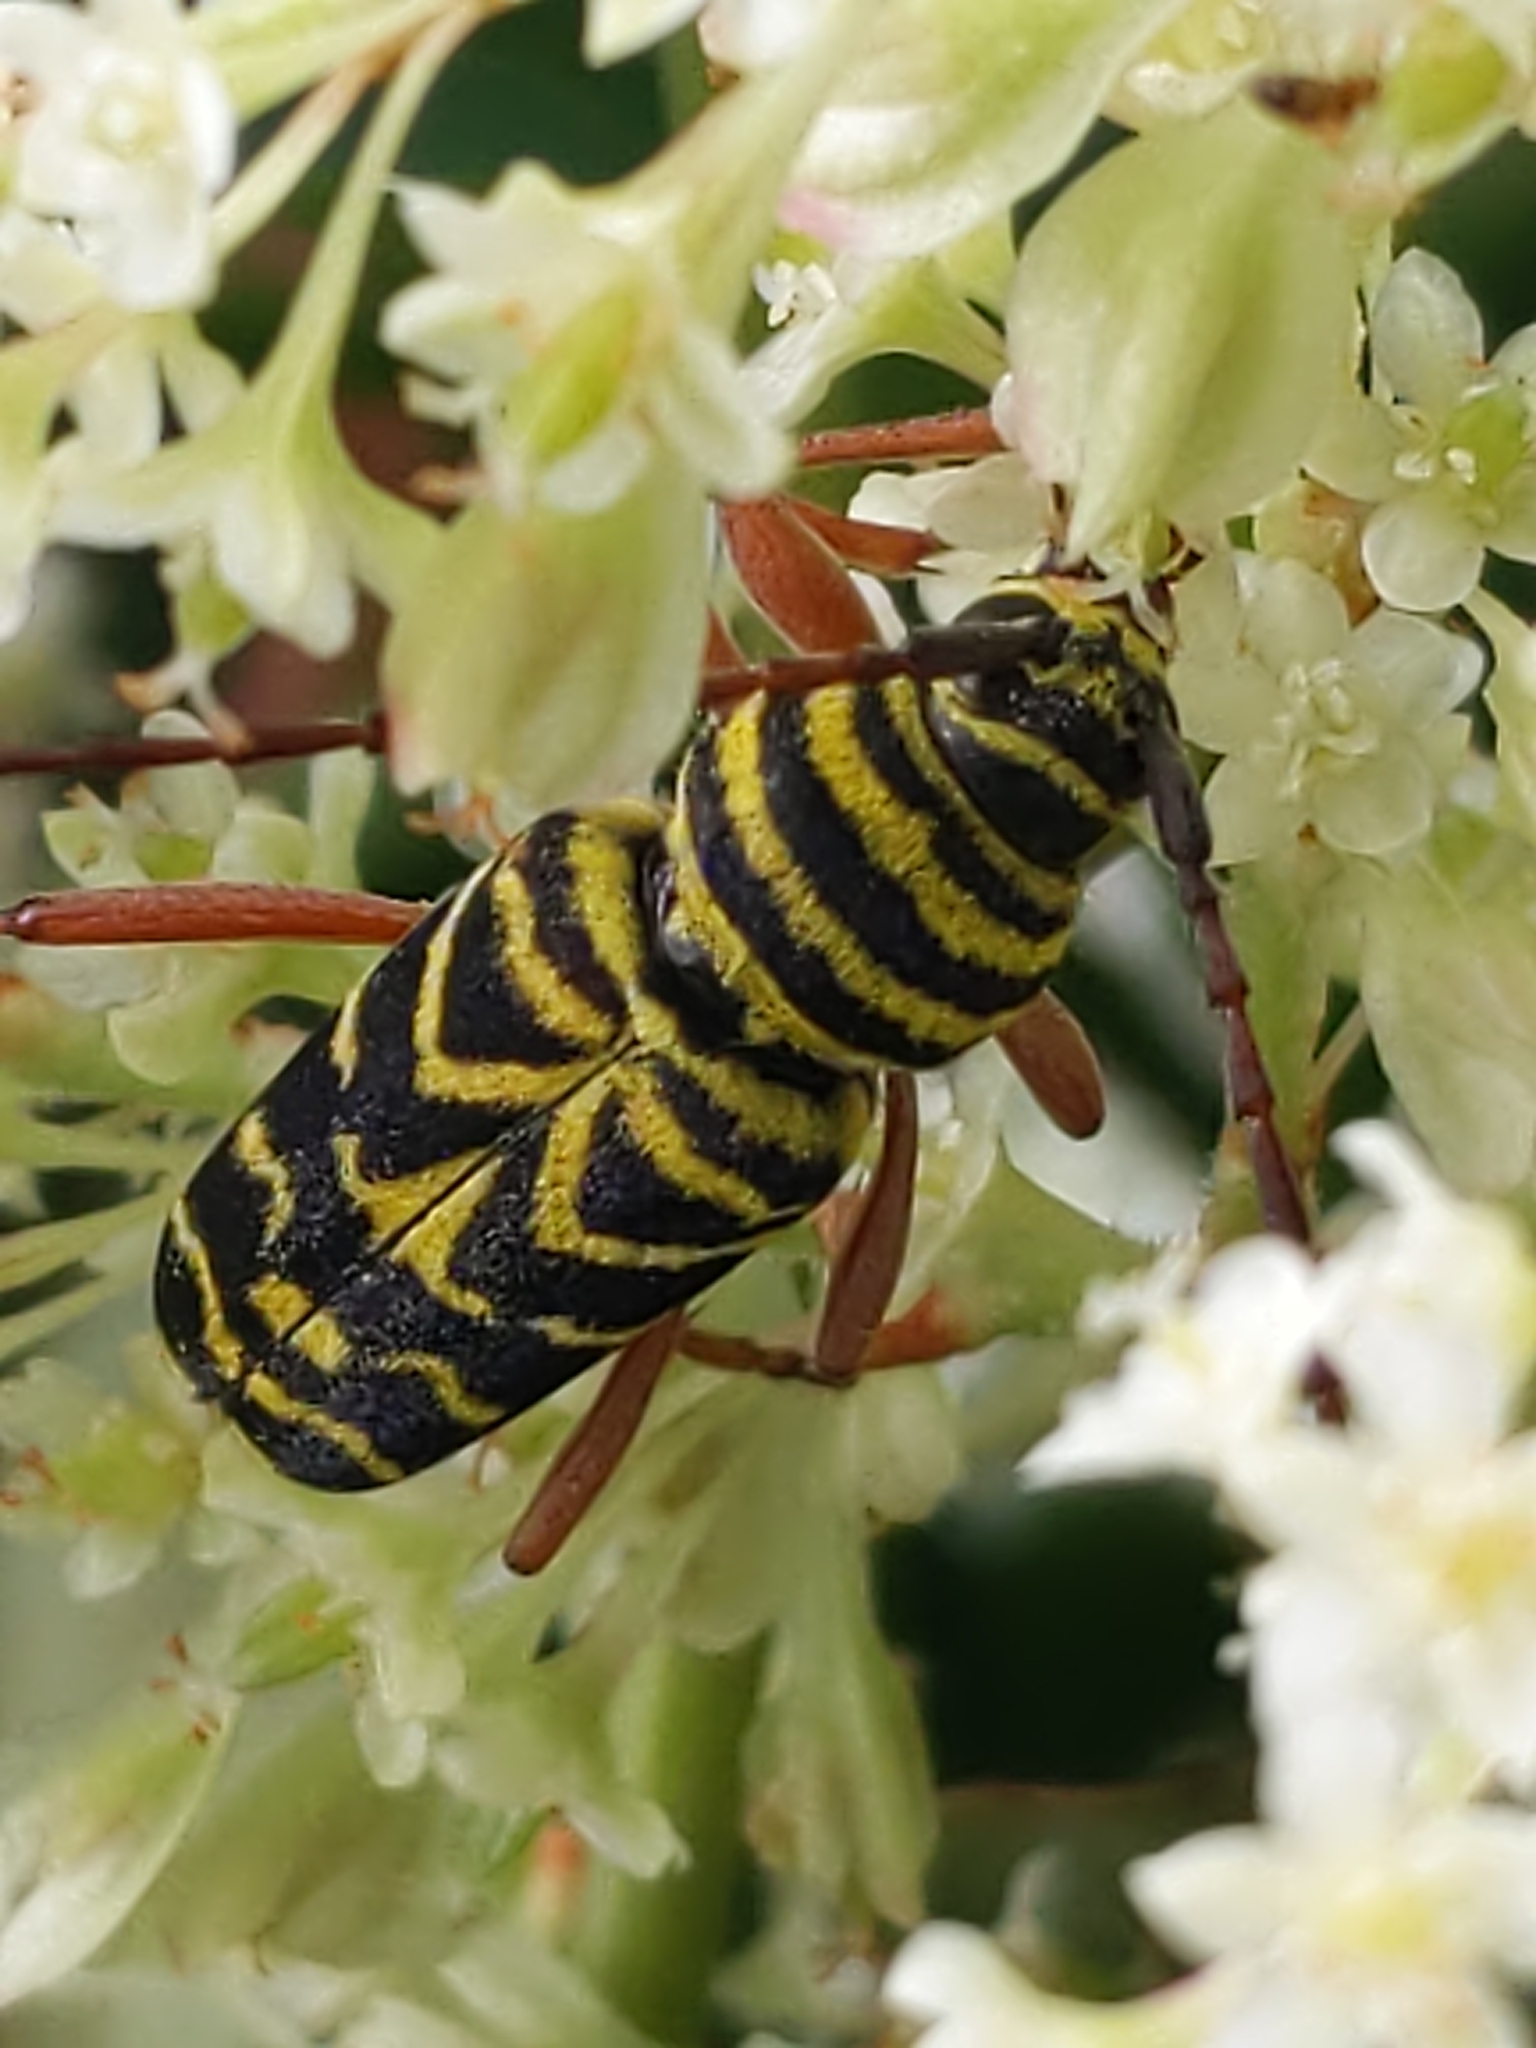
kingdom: Animalia
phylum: Arthropoda
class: Insecta
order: Coleoptera
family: Cerambycidae
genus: Megacyllene
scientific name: Megacyllene robiniae
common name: Locust borer
